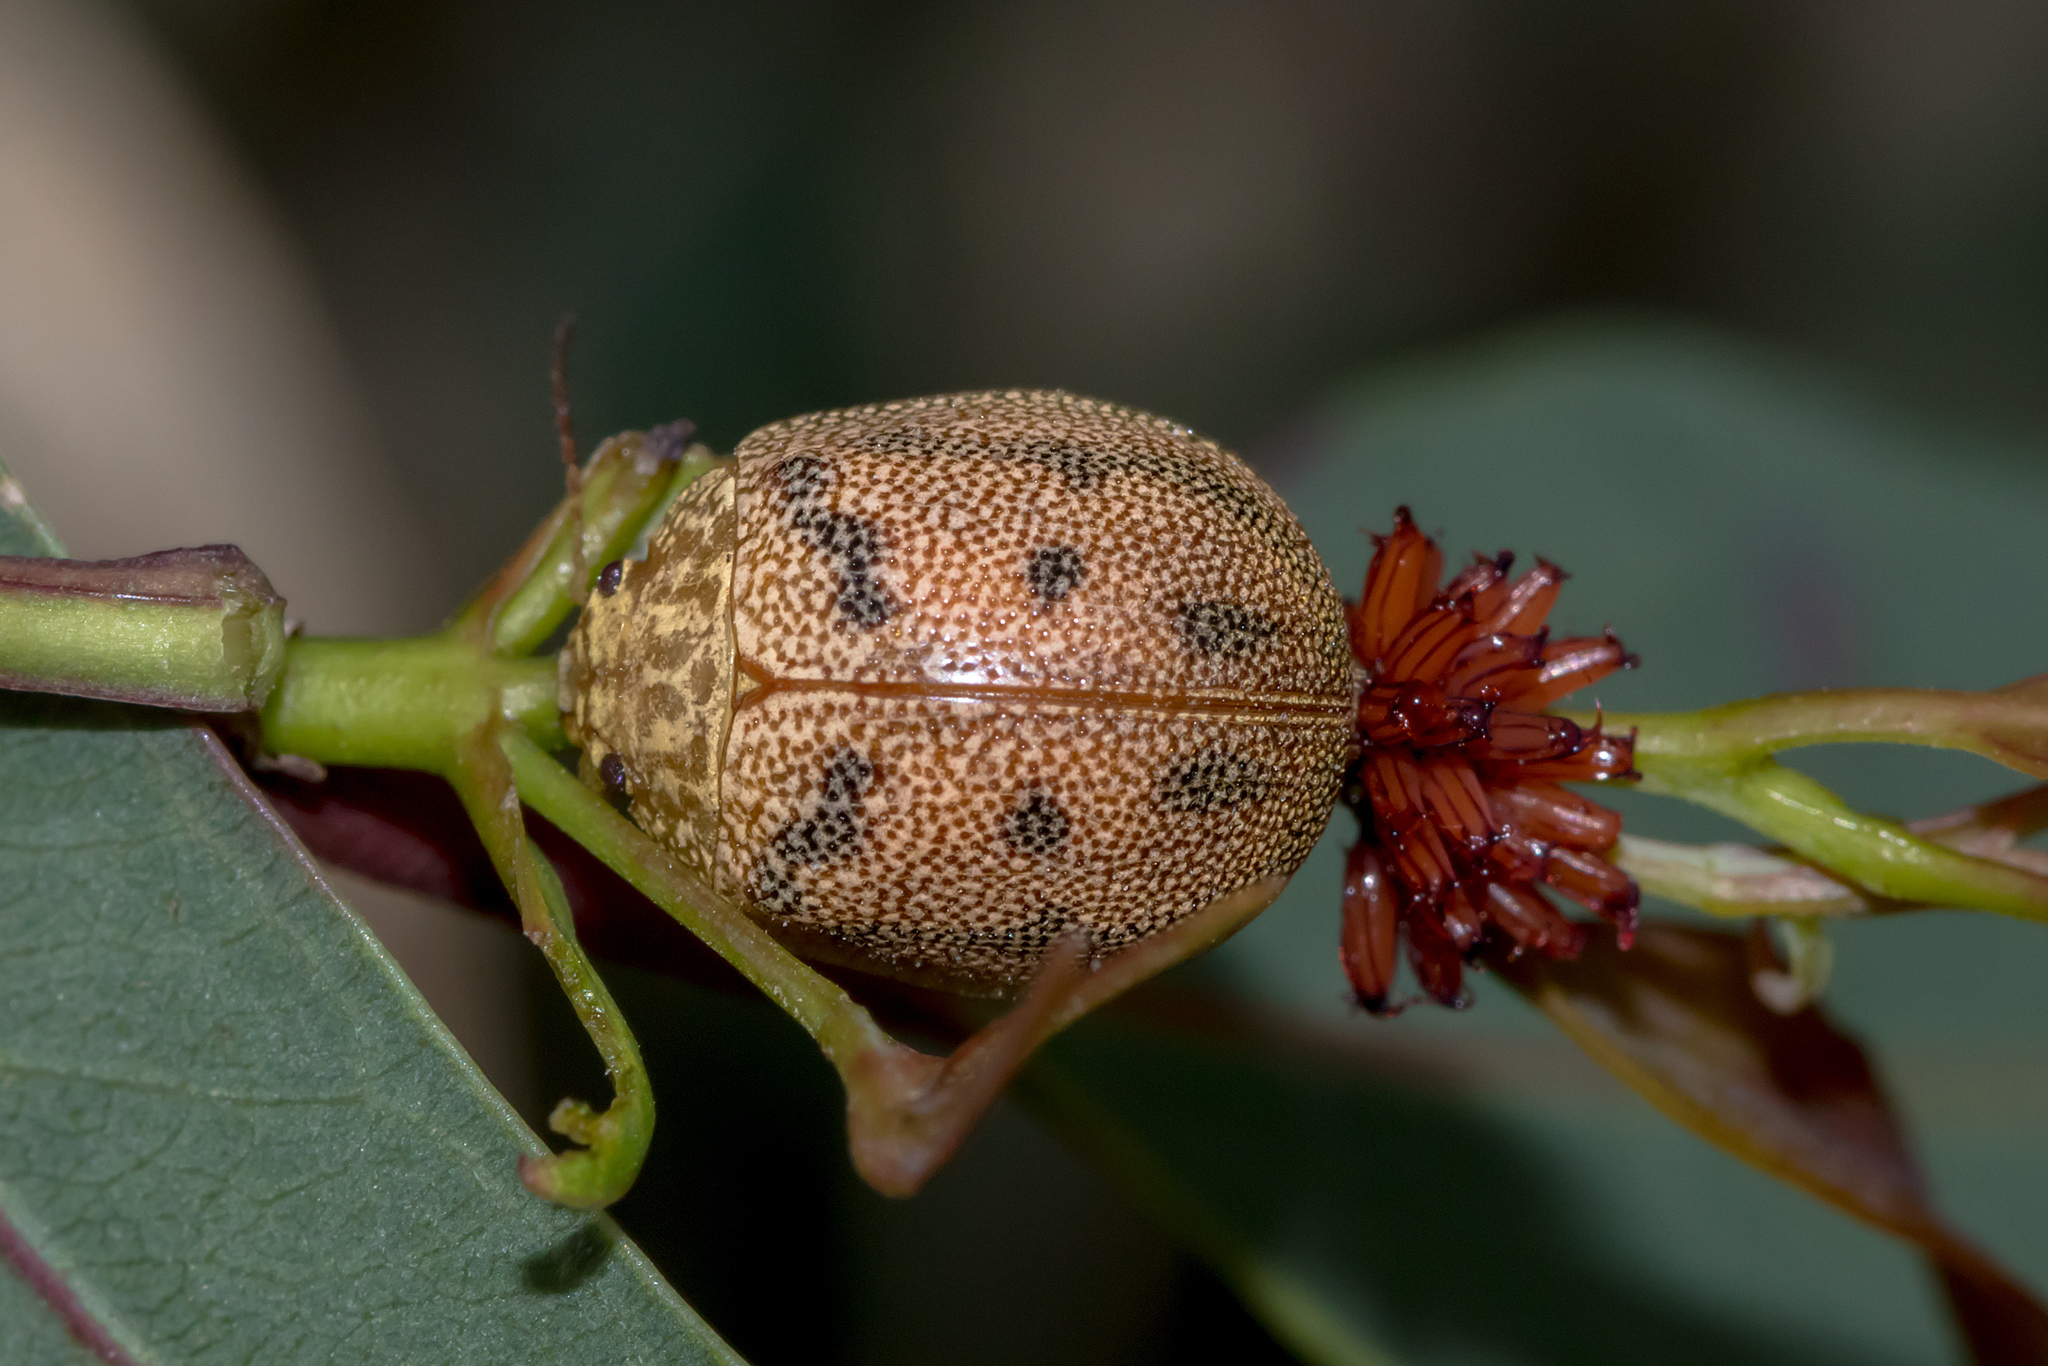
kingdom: Animalia
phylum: Arthropoda
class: Insecta
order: Coleoptera
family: Chrysomelidae
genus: Paropsis
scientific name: Paropsis
